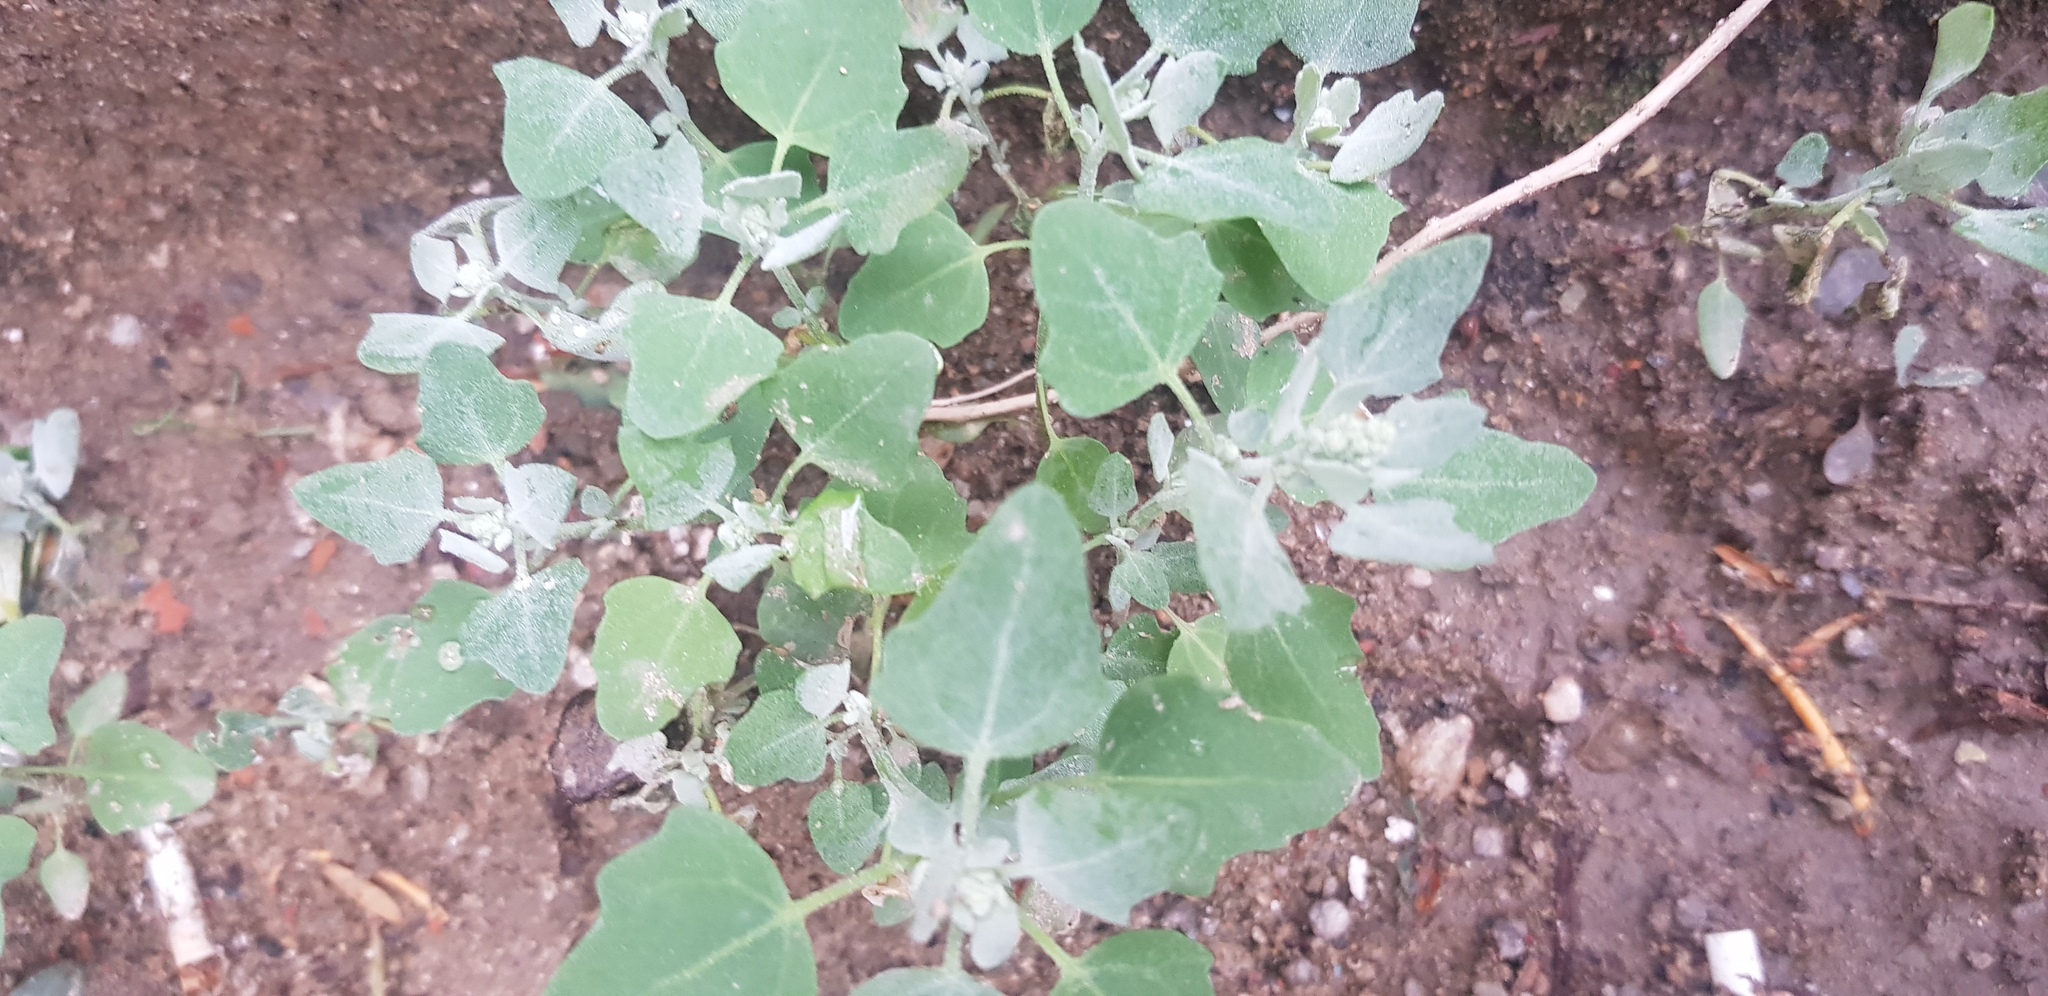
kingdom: Plantae
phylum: Tracheophyta
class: Magnoliopsida
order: Caryophyllales
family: Amaranthaceae
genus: Chenopodium
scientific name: Chenopodium karoi
